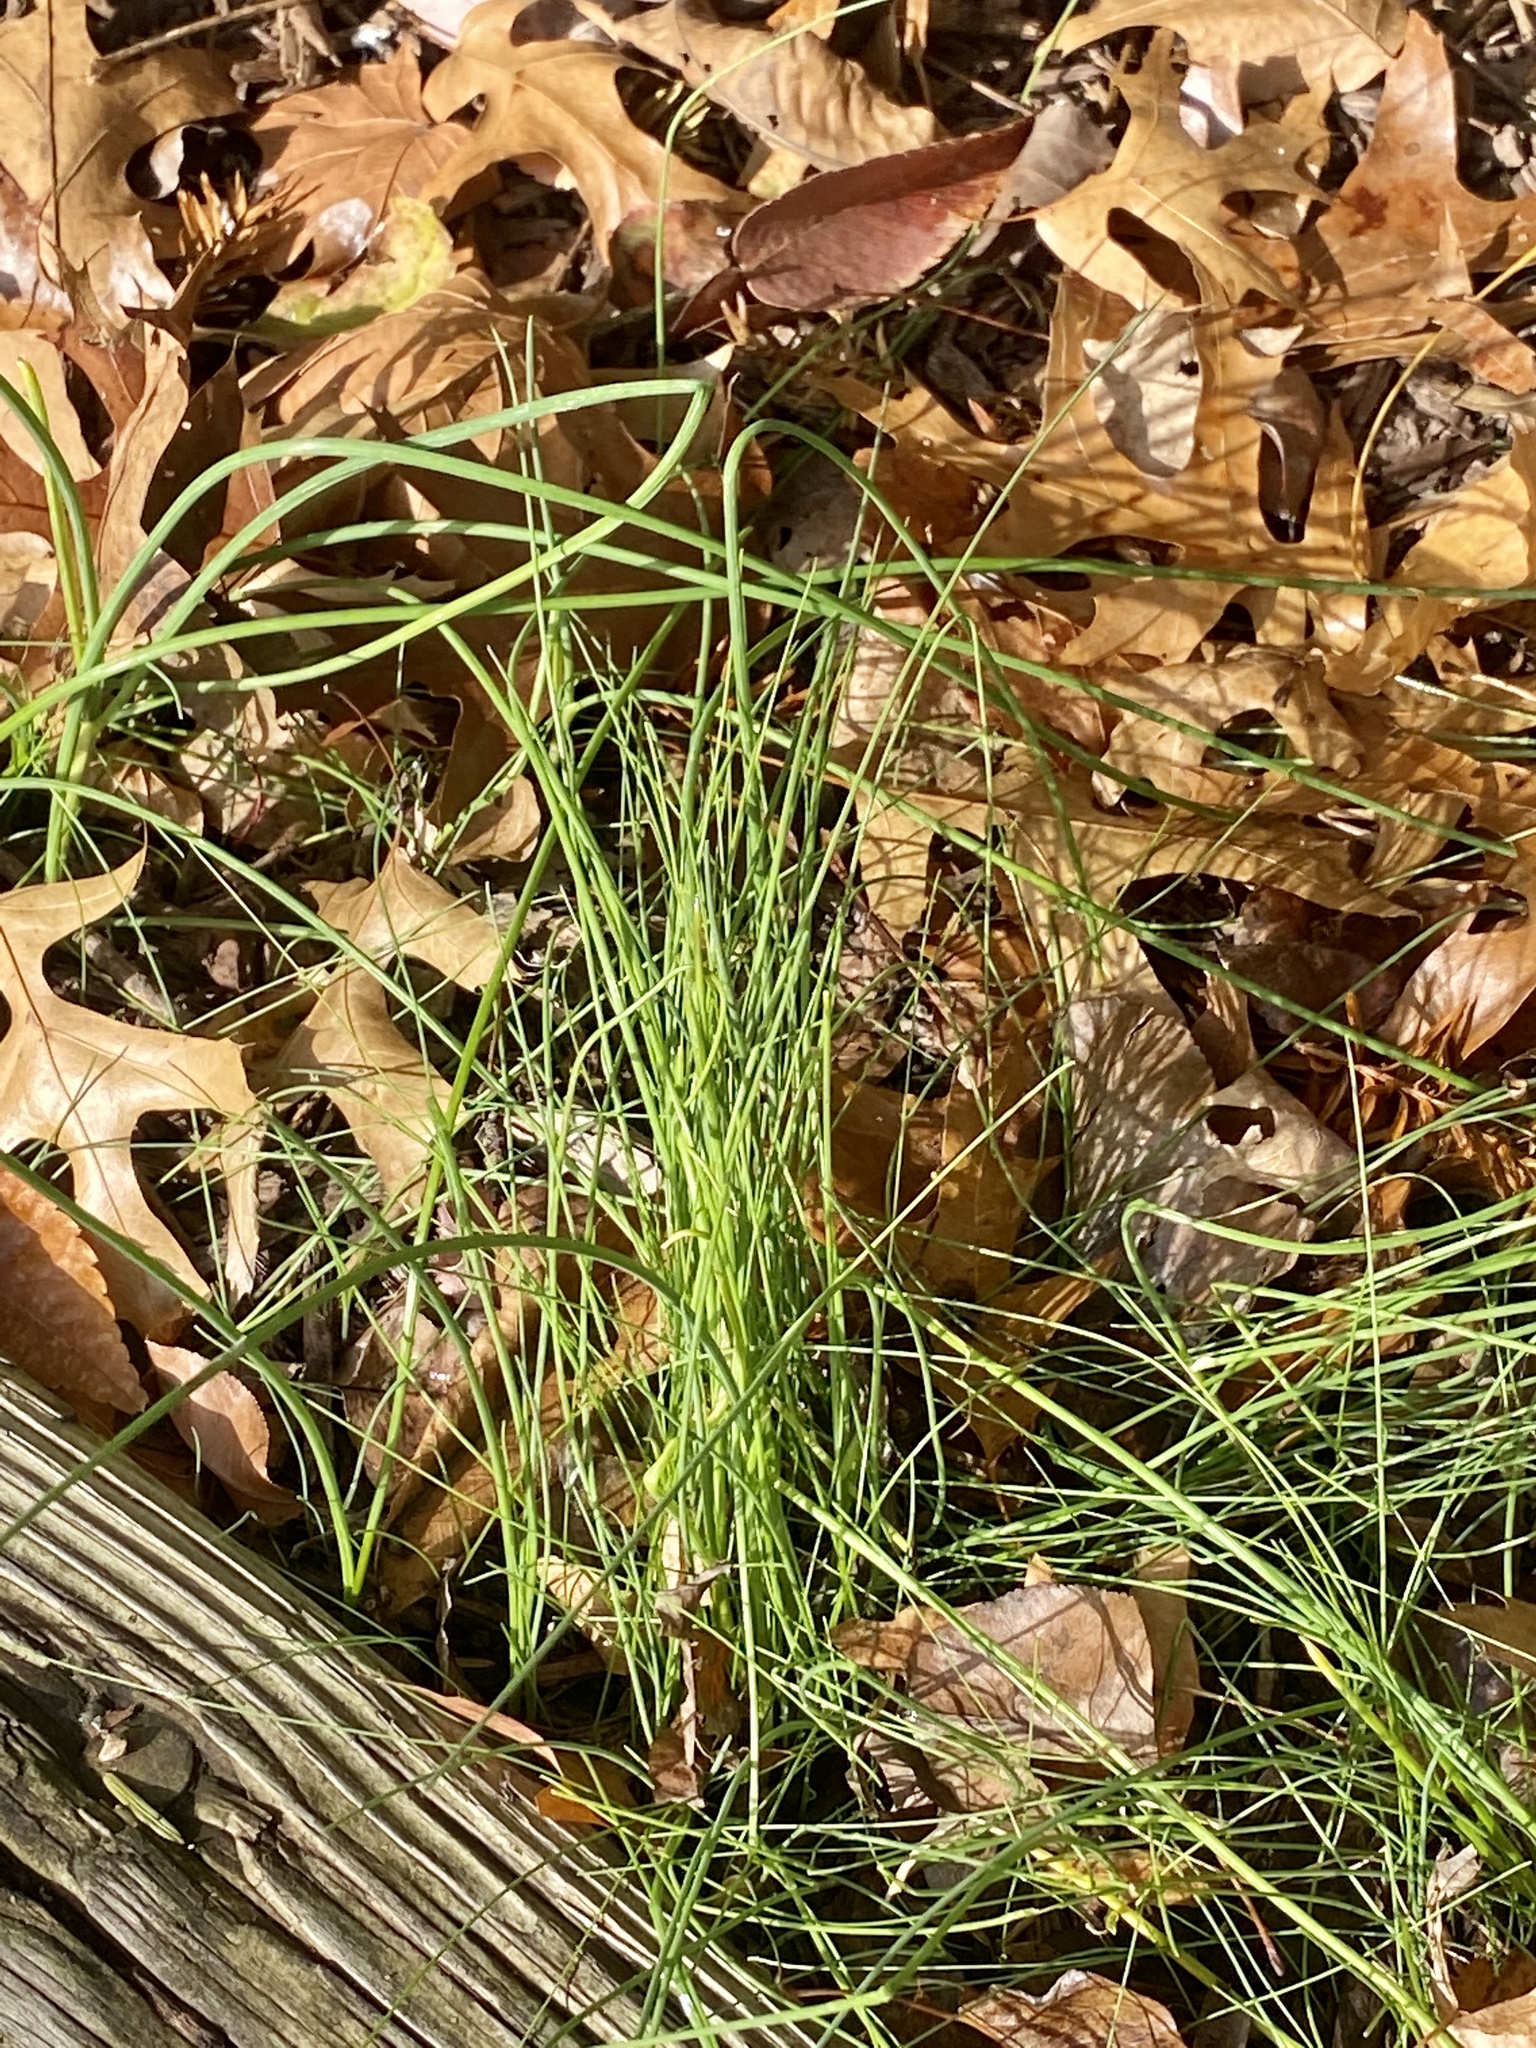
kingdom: Plantae
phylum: Tracheophyta
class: Liliopsida
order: Asparagales
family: Amaryllidaceae
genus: Allium
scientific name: Allium vineale
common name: Crow garlic
